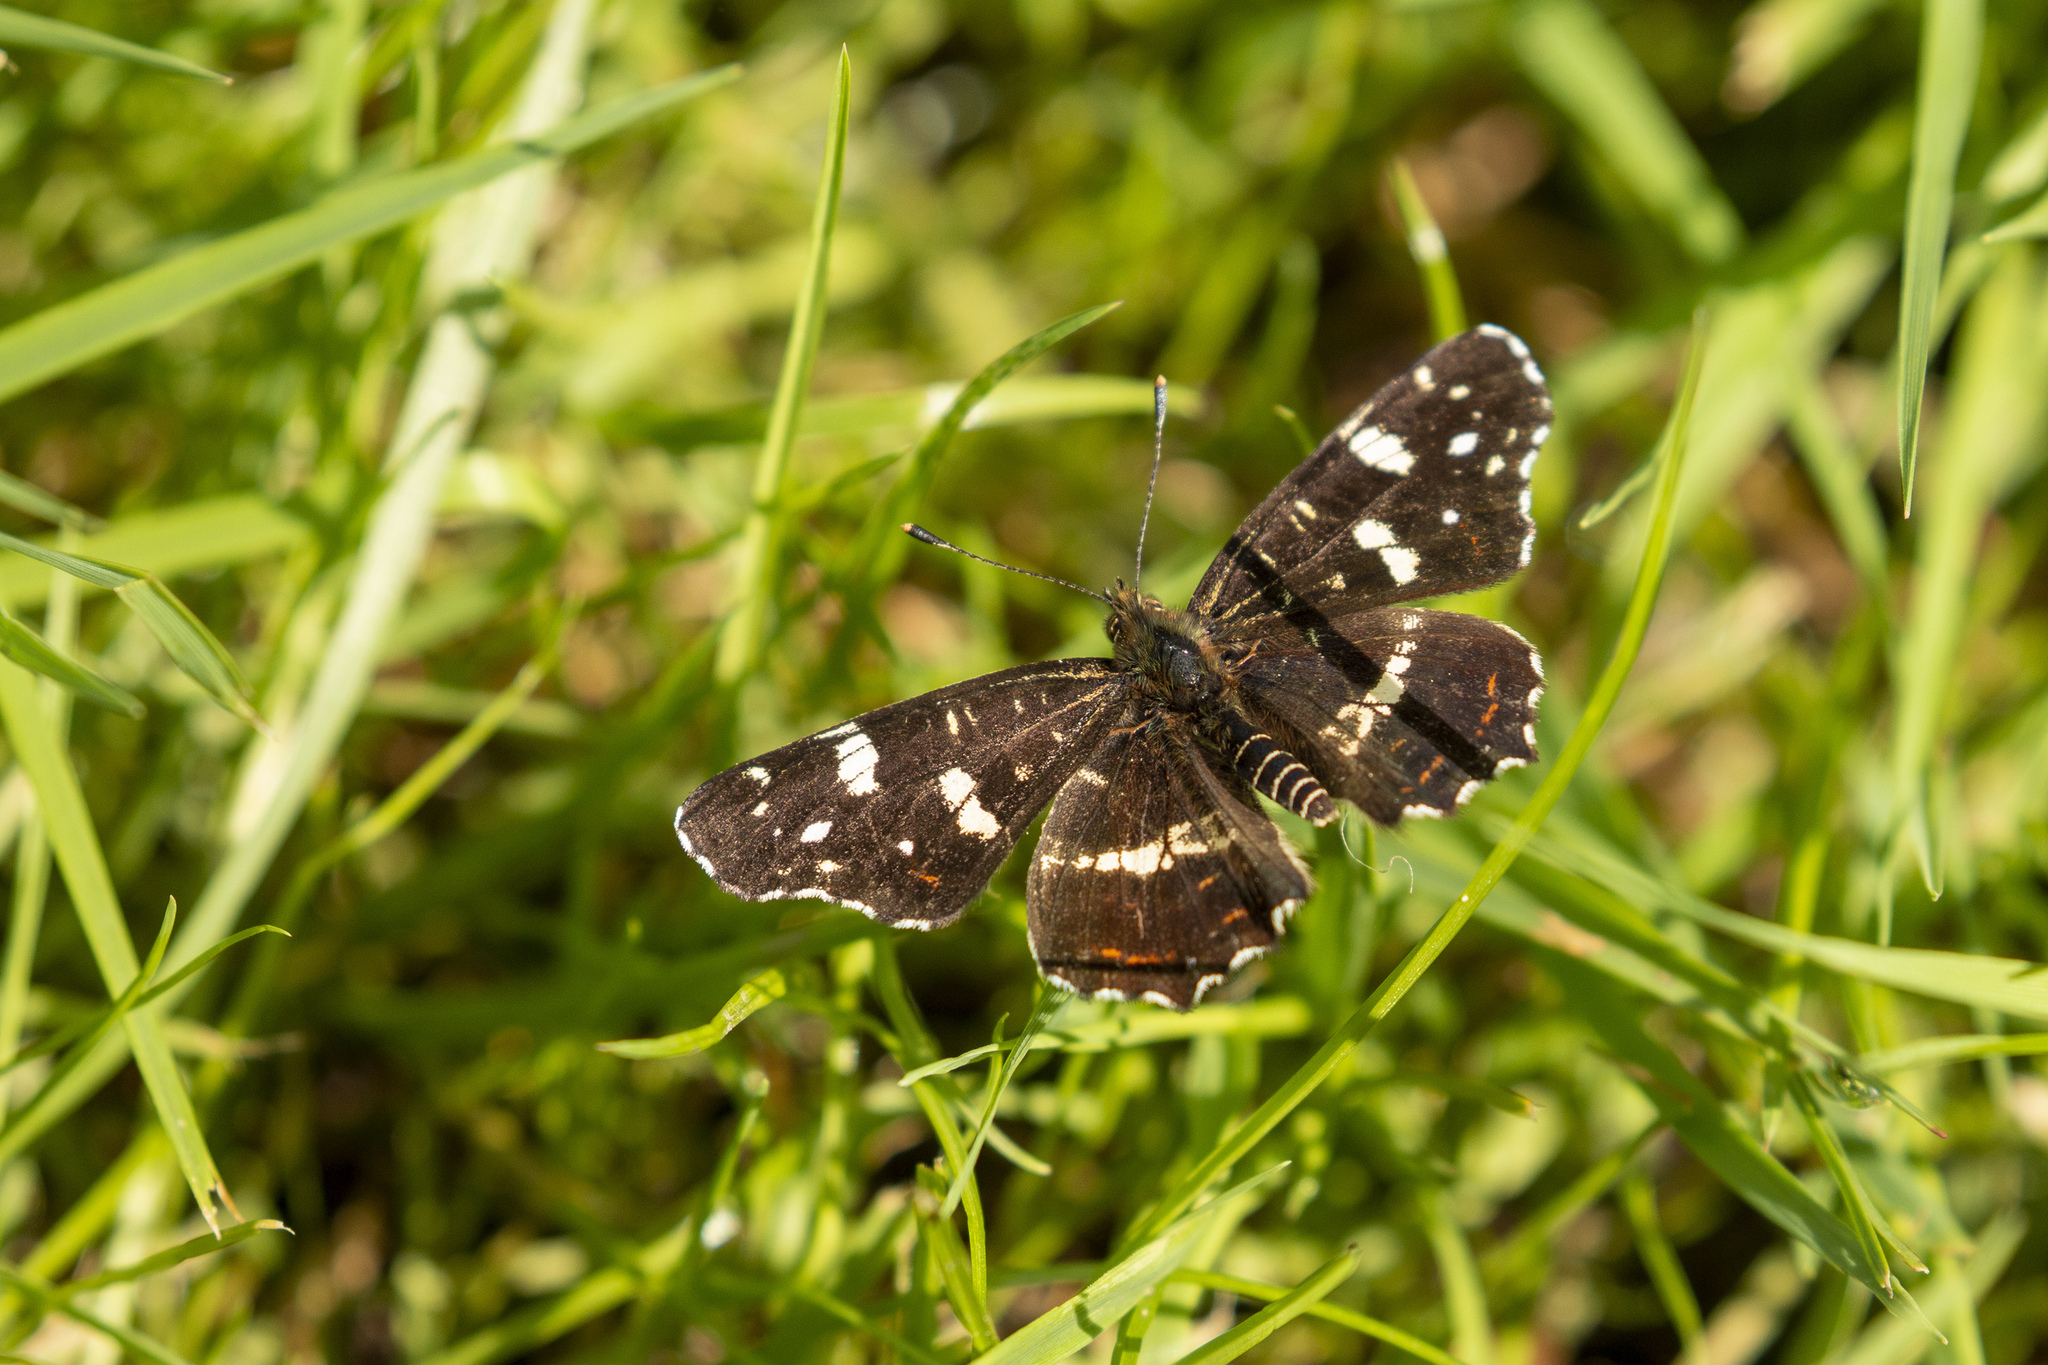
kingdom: Animalia
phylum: Arthropoda
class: Insecta
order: Lepidoptera
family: Nymphalidae
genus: Araschnia
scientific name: Araschnia levana
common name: Map butterfly
